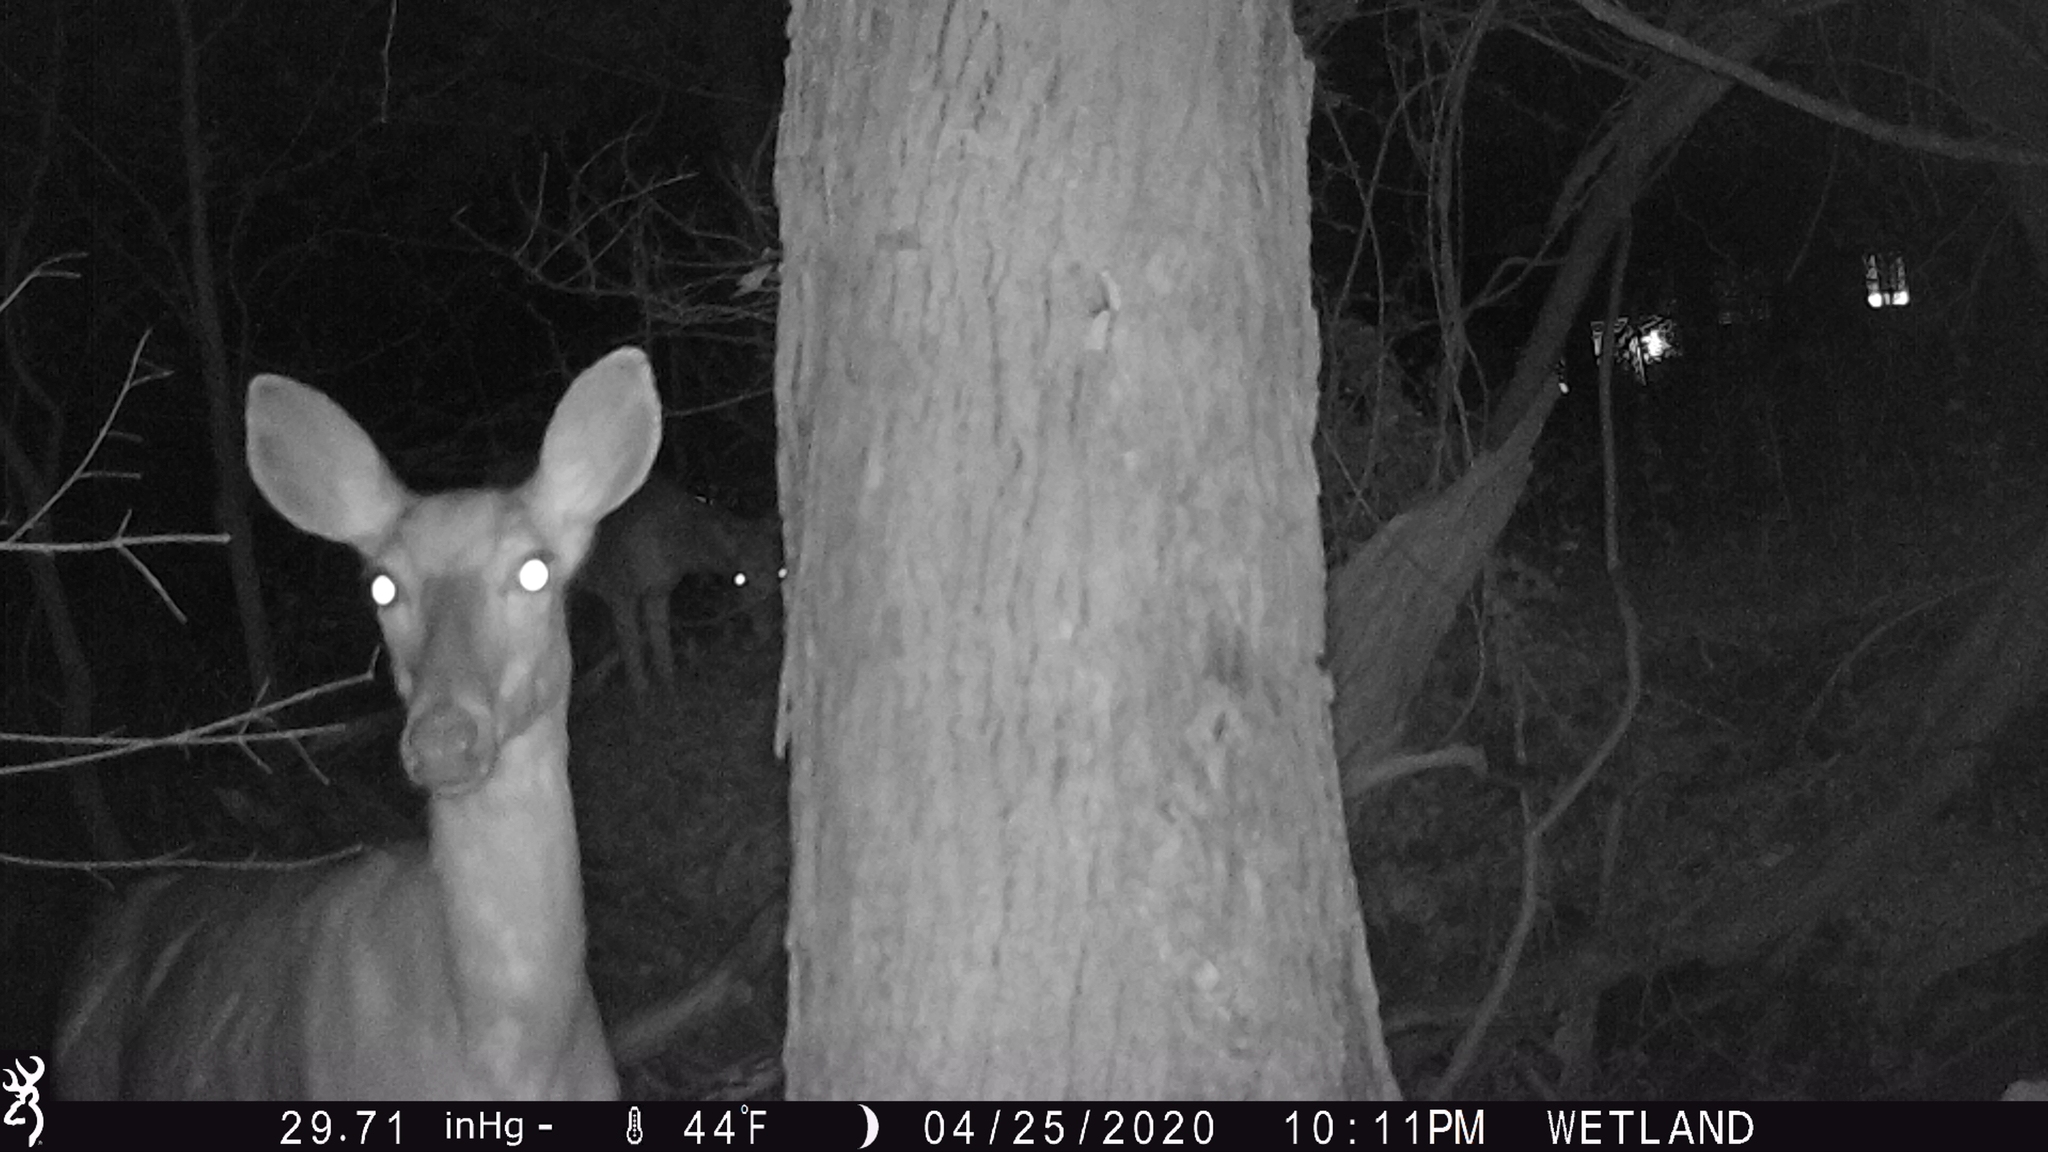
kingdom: Animalia
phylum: Chordata
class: Mammalia
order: Artiodactyla
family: Cervidae
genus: Odocoileus
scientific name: Odocoileus virginianus
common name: White-tailed deer
